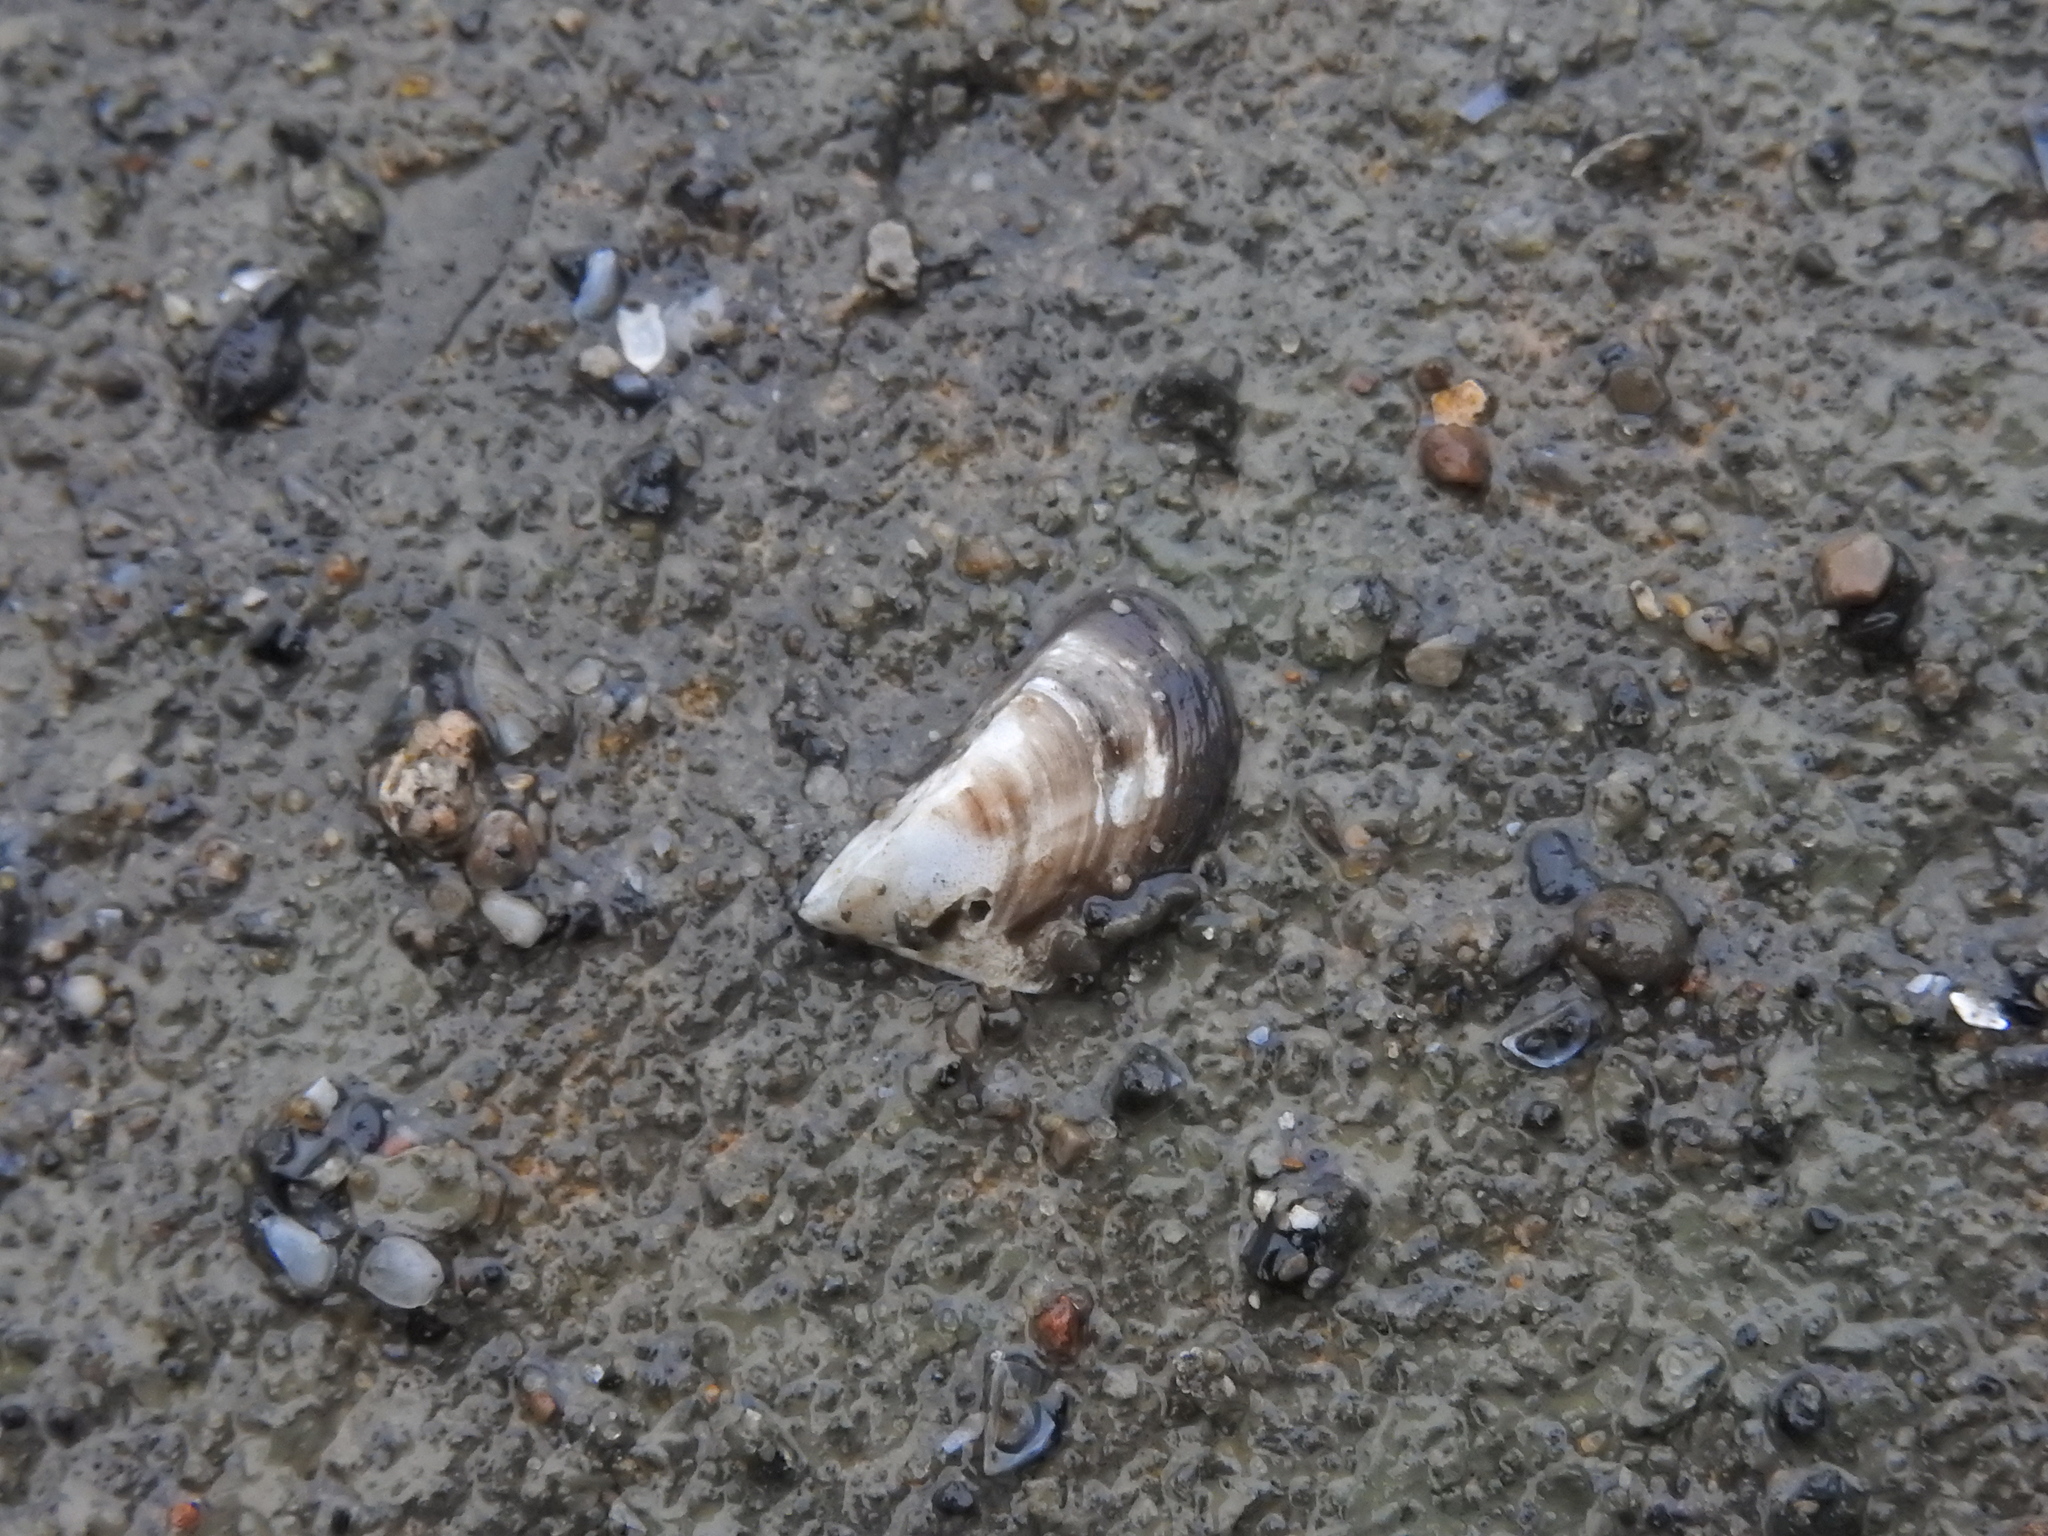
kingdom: Animalia
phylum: Mollusca
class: Bivalvia
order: Myida
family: Dreissenidae
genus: Dreissena
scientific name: Dreissena polymorpha
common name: Zebra mussel
